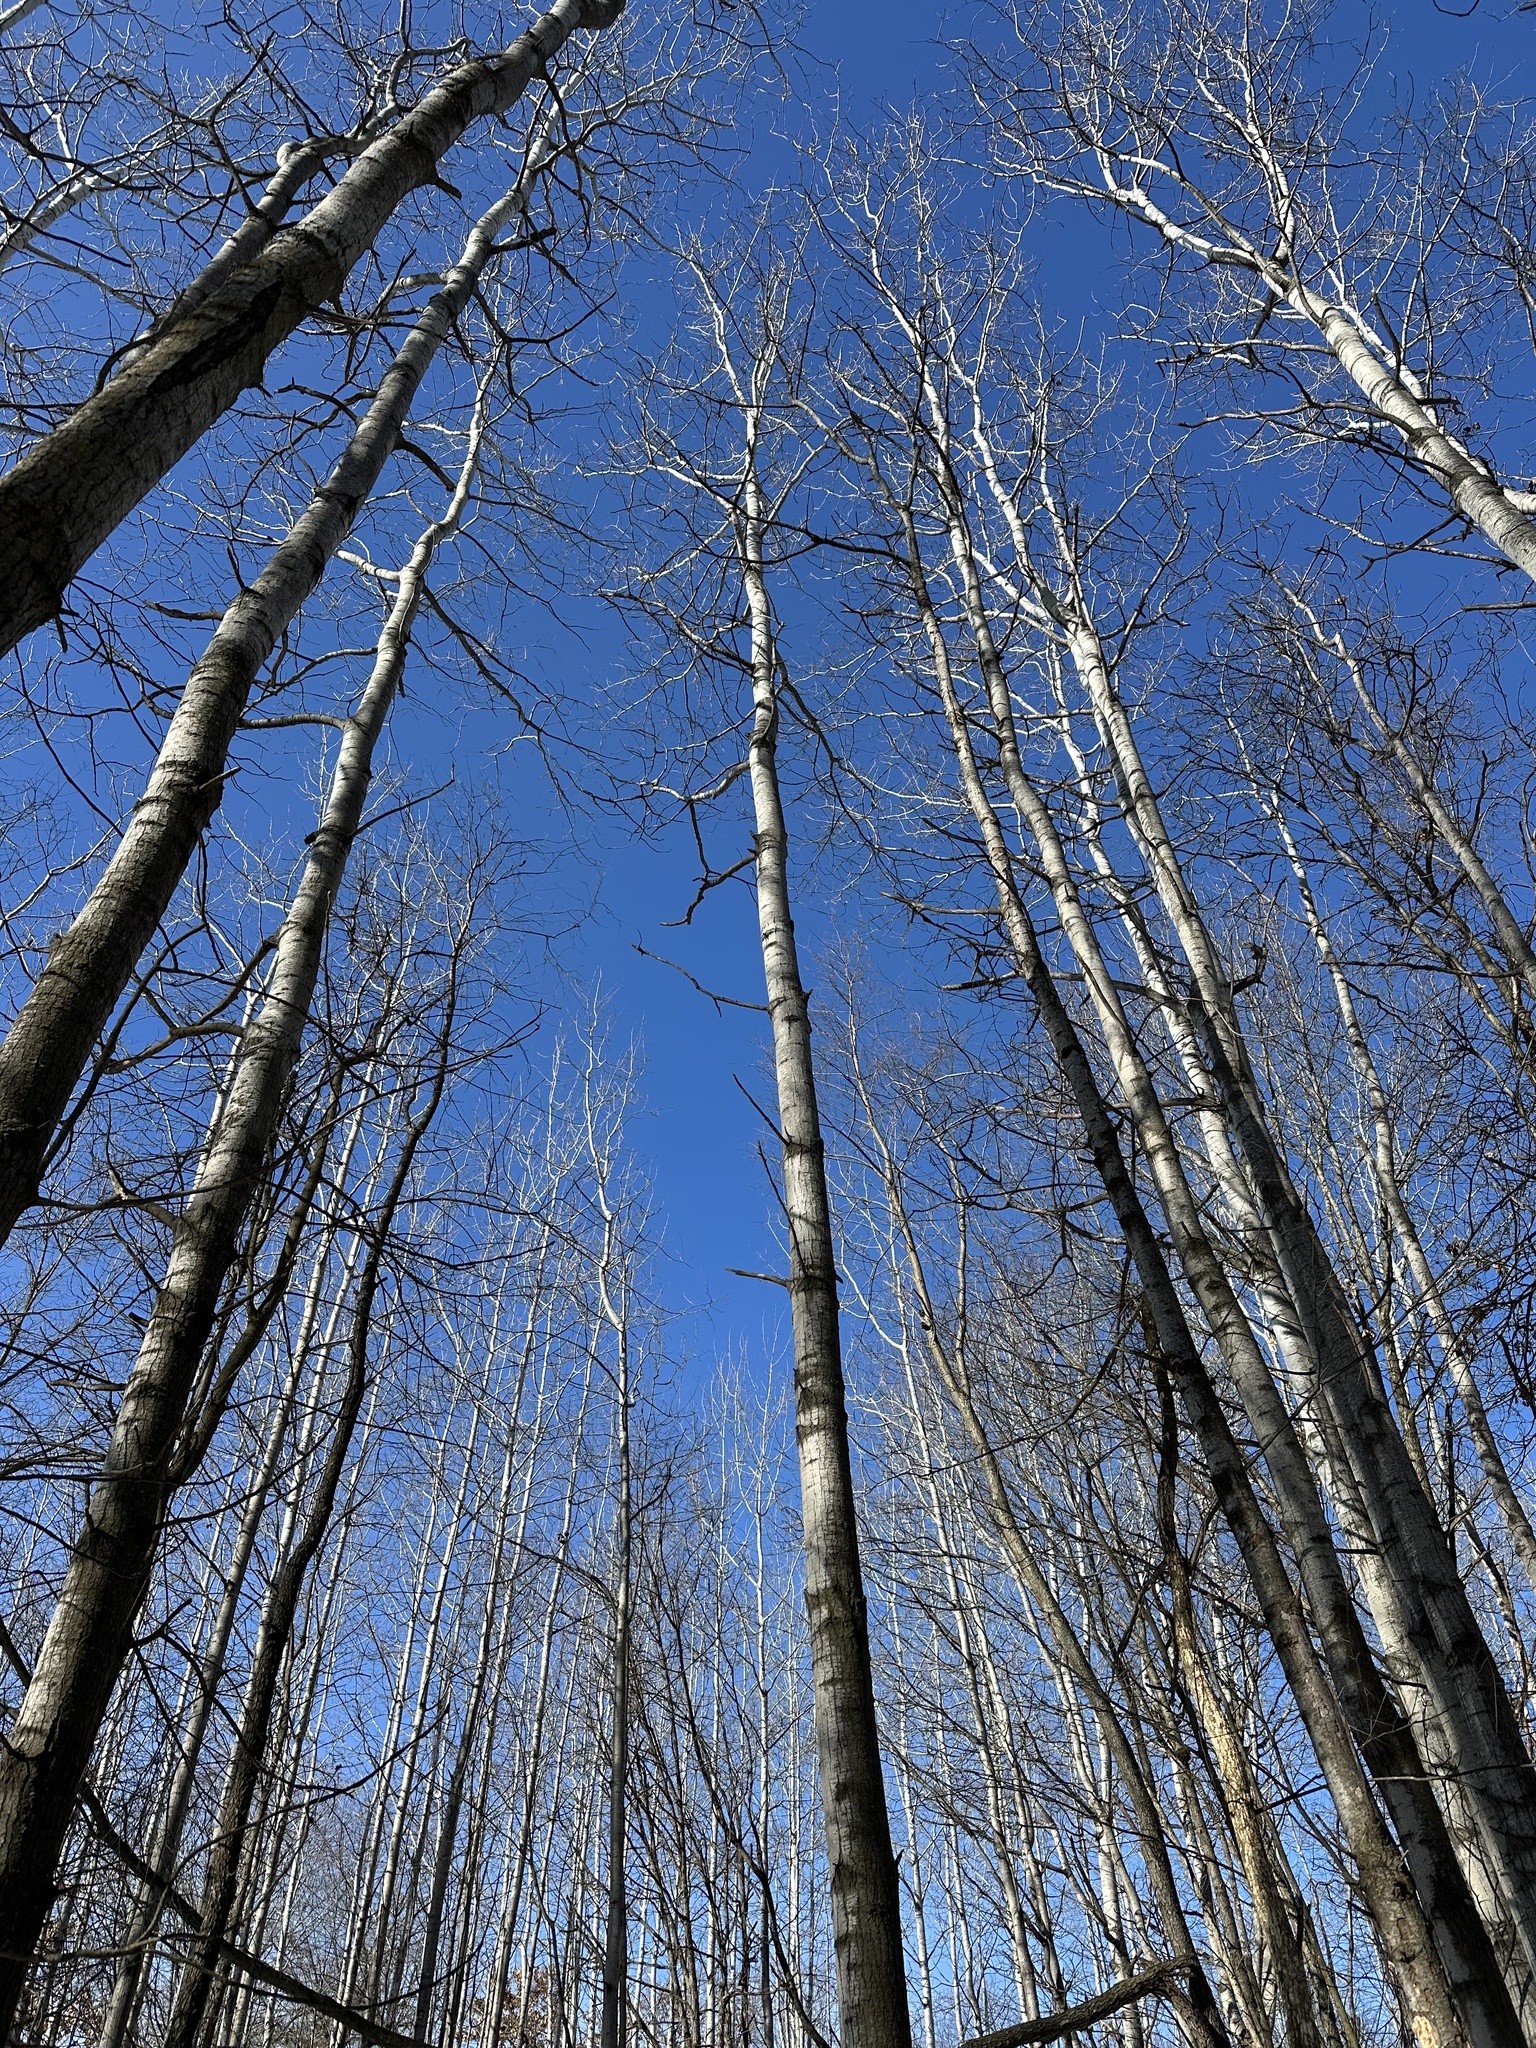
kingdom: Plantae
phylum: Tracheophyta
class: Magnoliopsida
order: Malpighiales
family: Salicaceae
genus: Populus
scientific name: Populus tremuloides
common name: Quaking aspen
